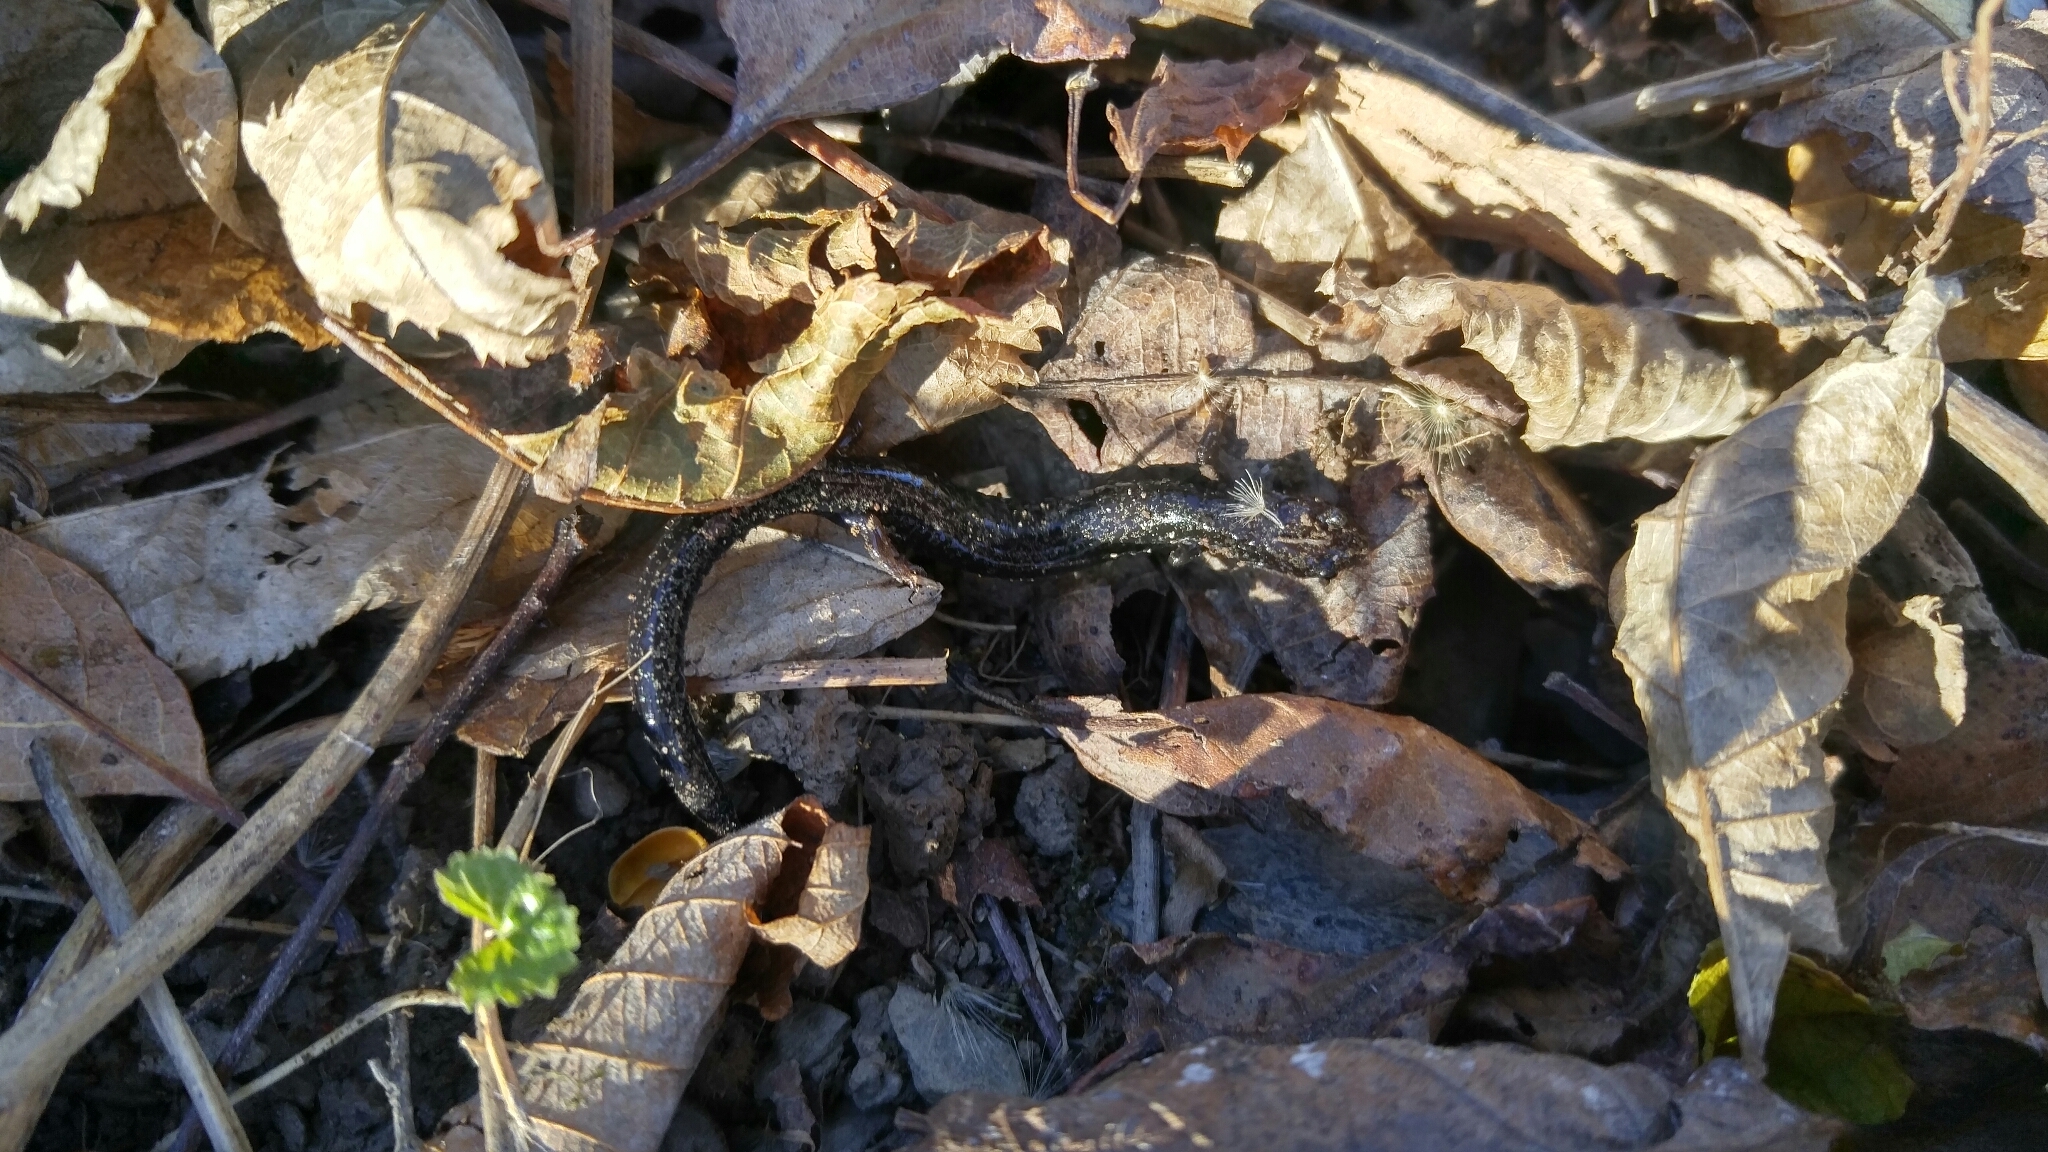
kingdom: Animalia
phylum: Chordata
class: Amphibia
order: Caudata
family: Plethodontidae
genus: Plethodon
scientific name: Plethodon cinereus
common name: Redback salamander
